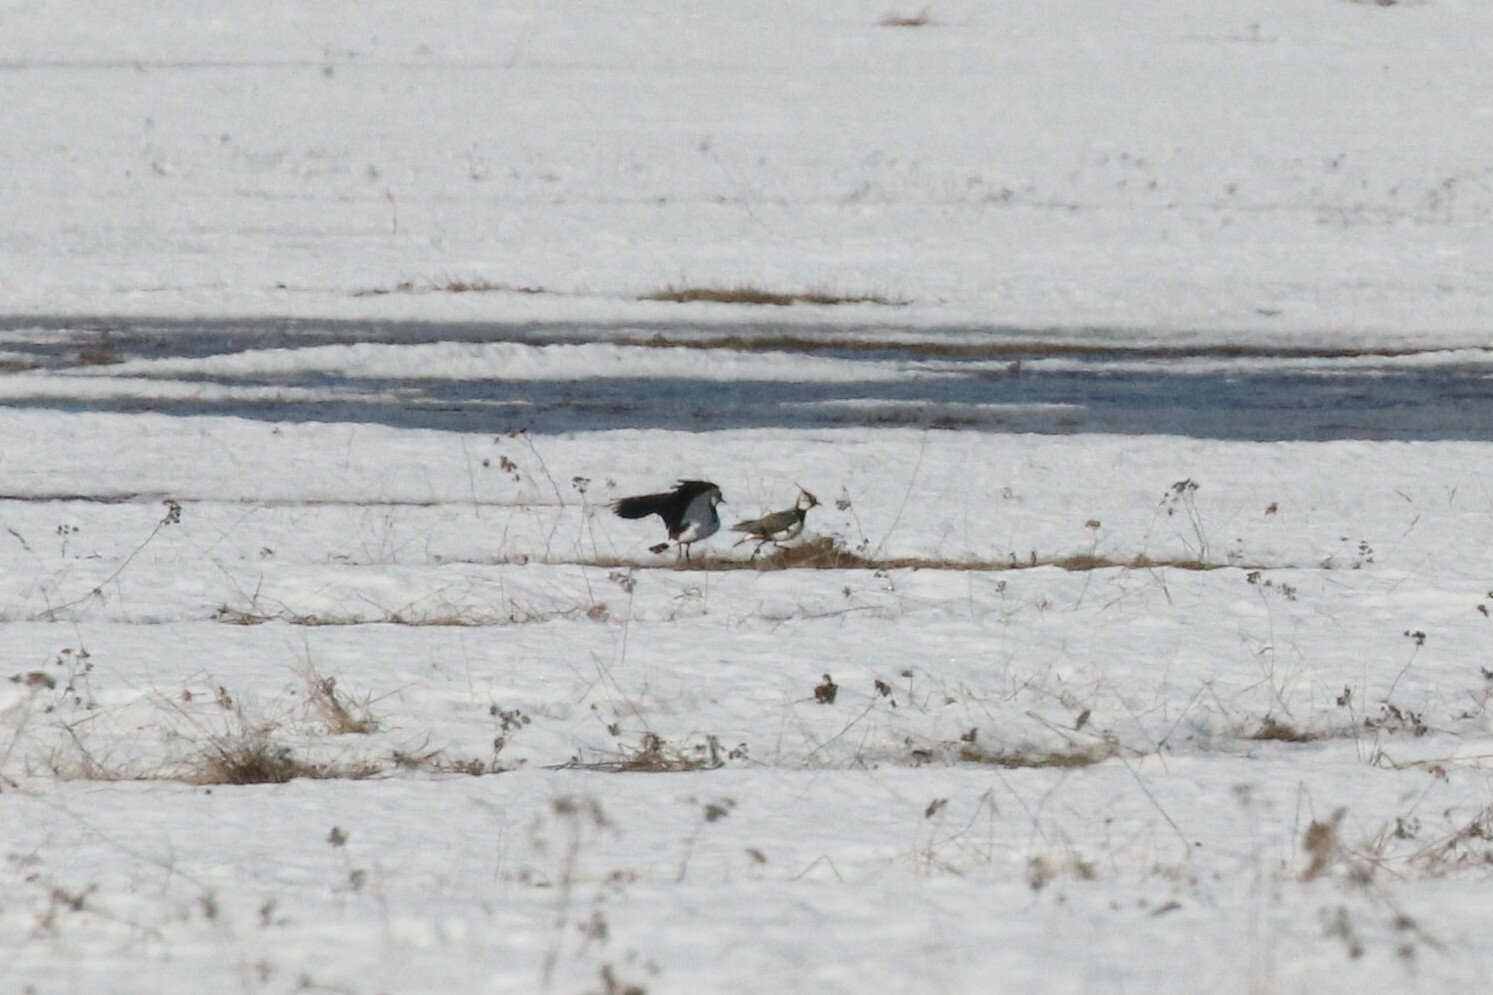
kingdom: Animalia
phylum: Chordata
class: Aves
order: Charadriiformes
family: Charadriidae
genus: Vanellus
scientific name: Vanellus vanellus
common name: Northern lapwing
